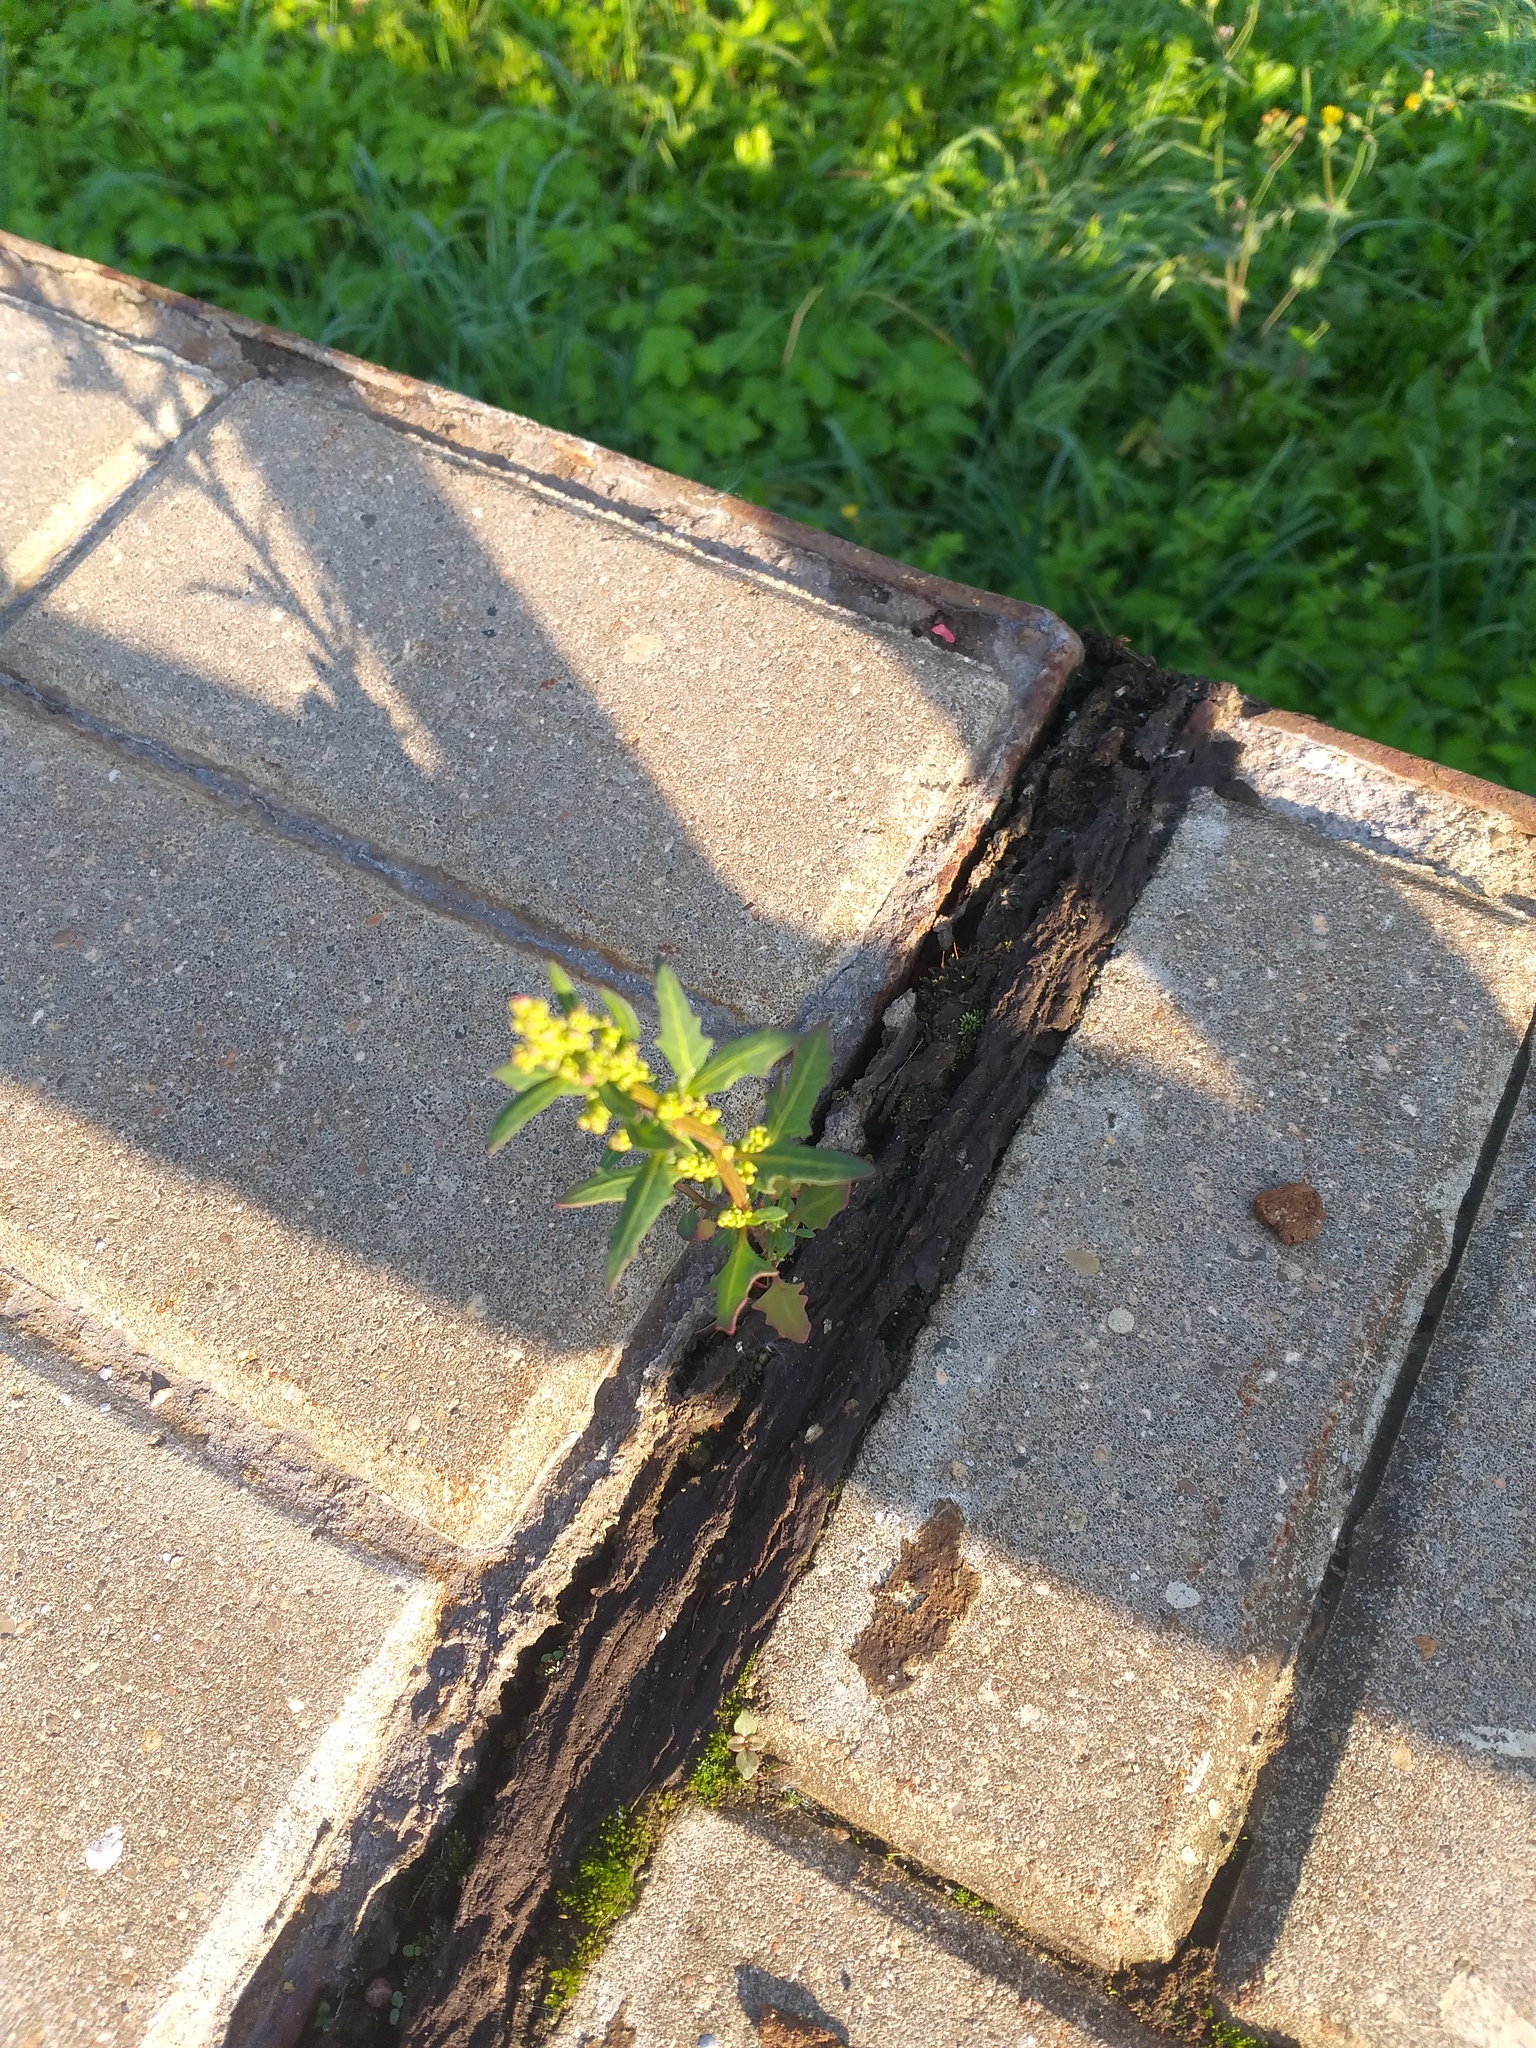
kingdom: Plantae
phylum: Tracheophyta
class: Magnoliopsida
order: Caryophyllales
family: Amaranthaceae
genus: Oxybasis
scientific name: Oxybasis glauca
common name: Glaucous goosefoot
